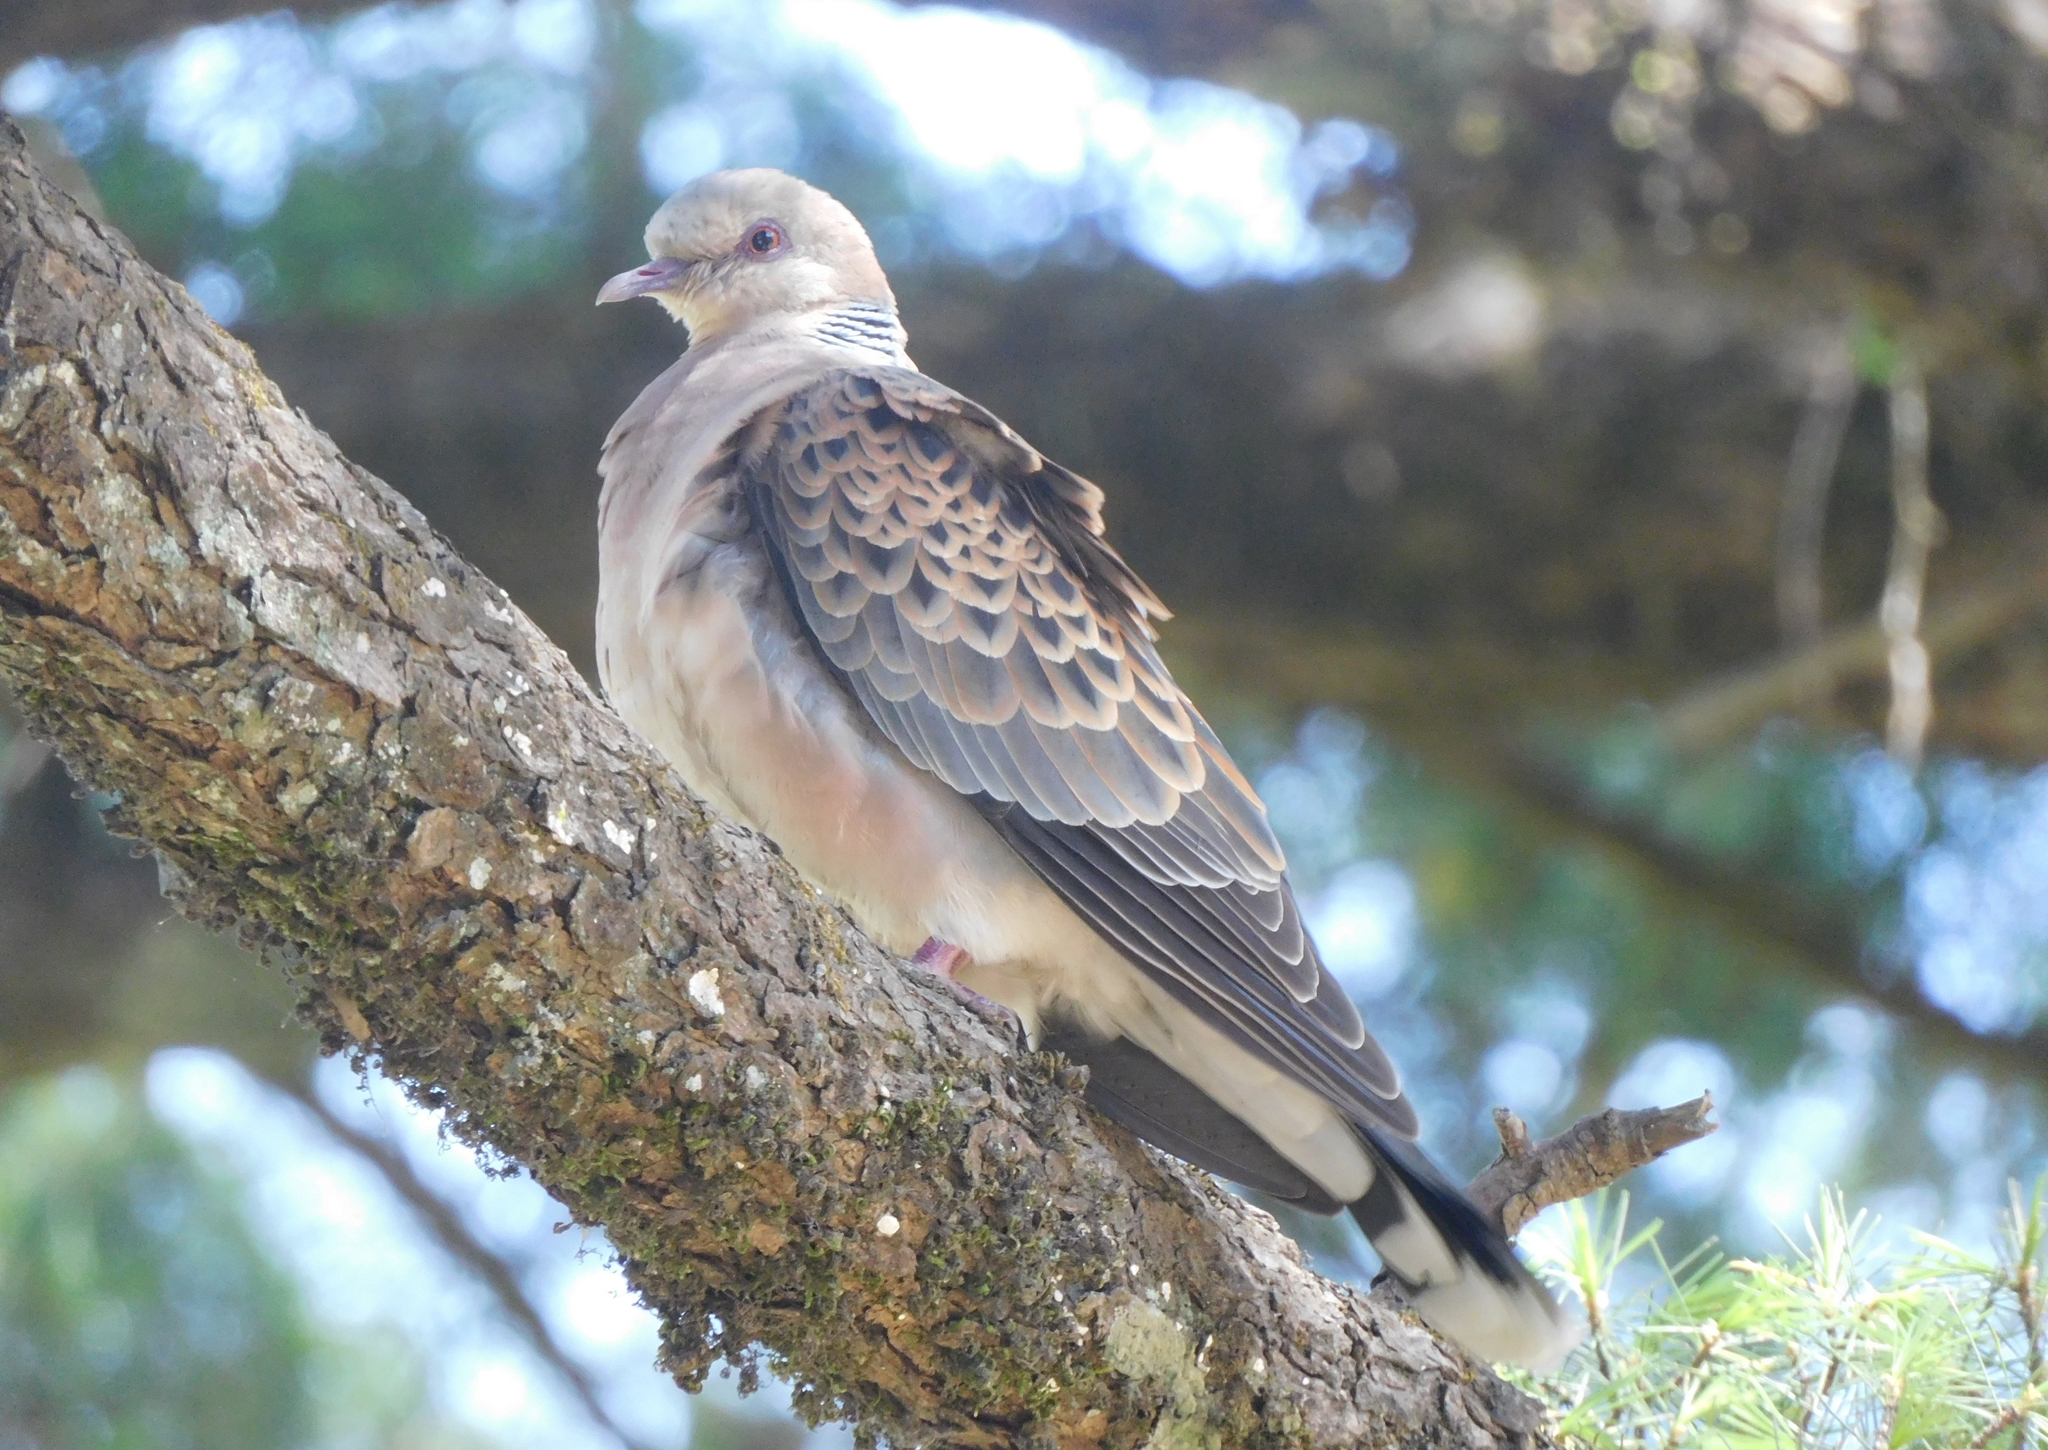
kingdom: Animalia
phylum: Chordata
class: Aves
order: Columbiformes
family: Columbidae
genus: Streptopelia
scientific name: Streptopelia orientalis
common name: Oriental turtle dove
